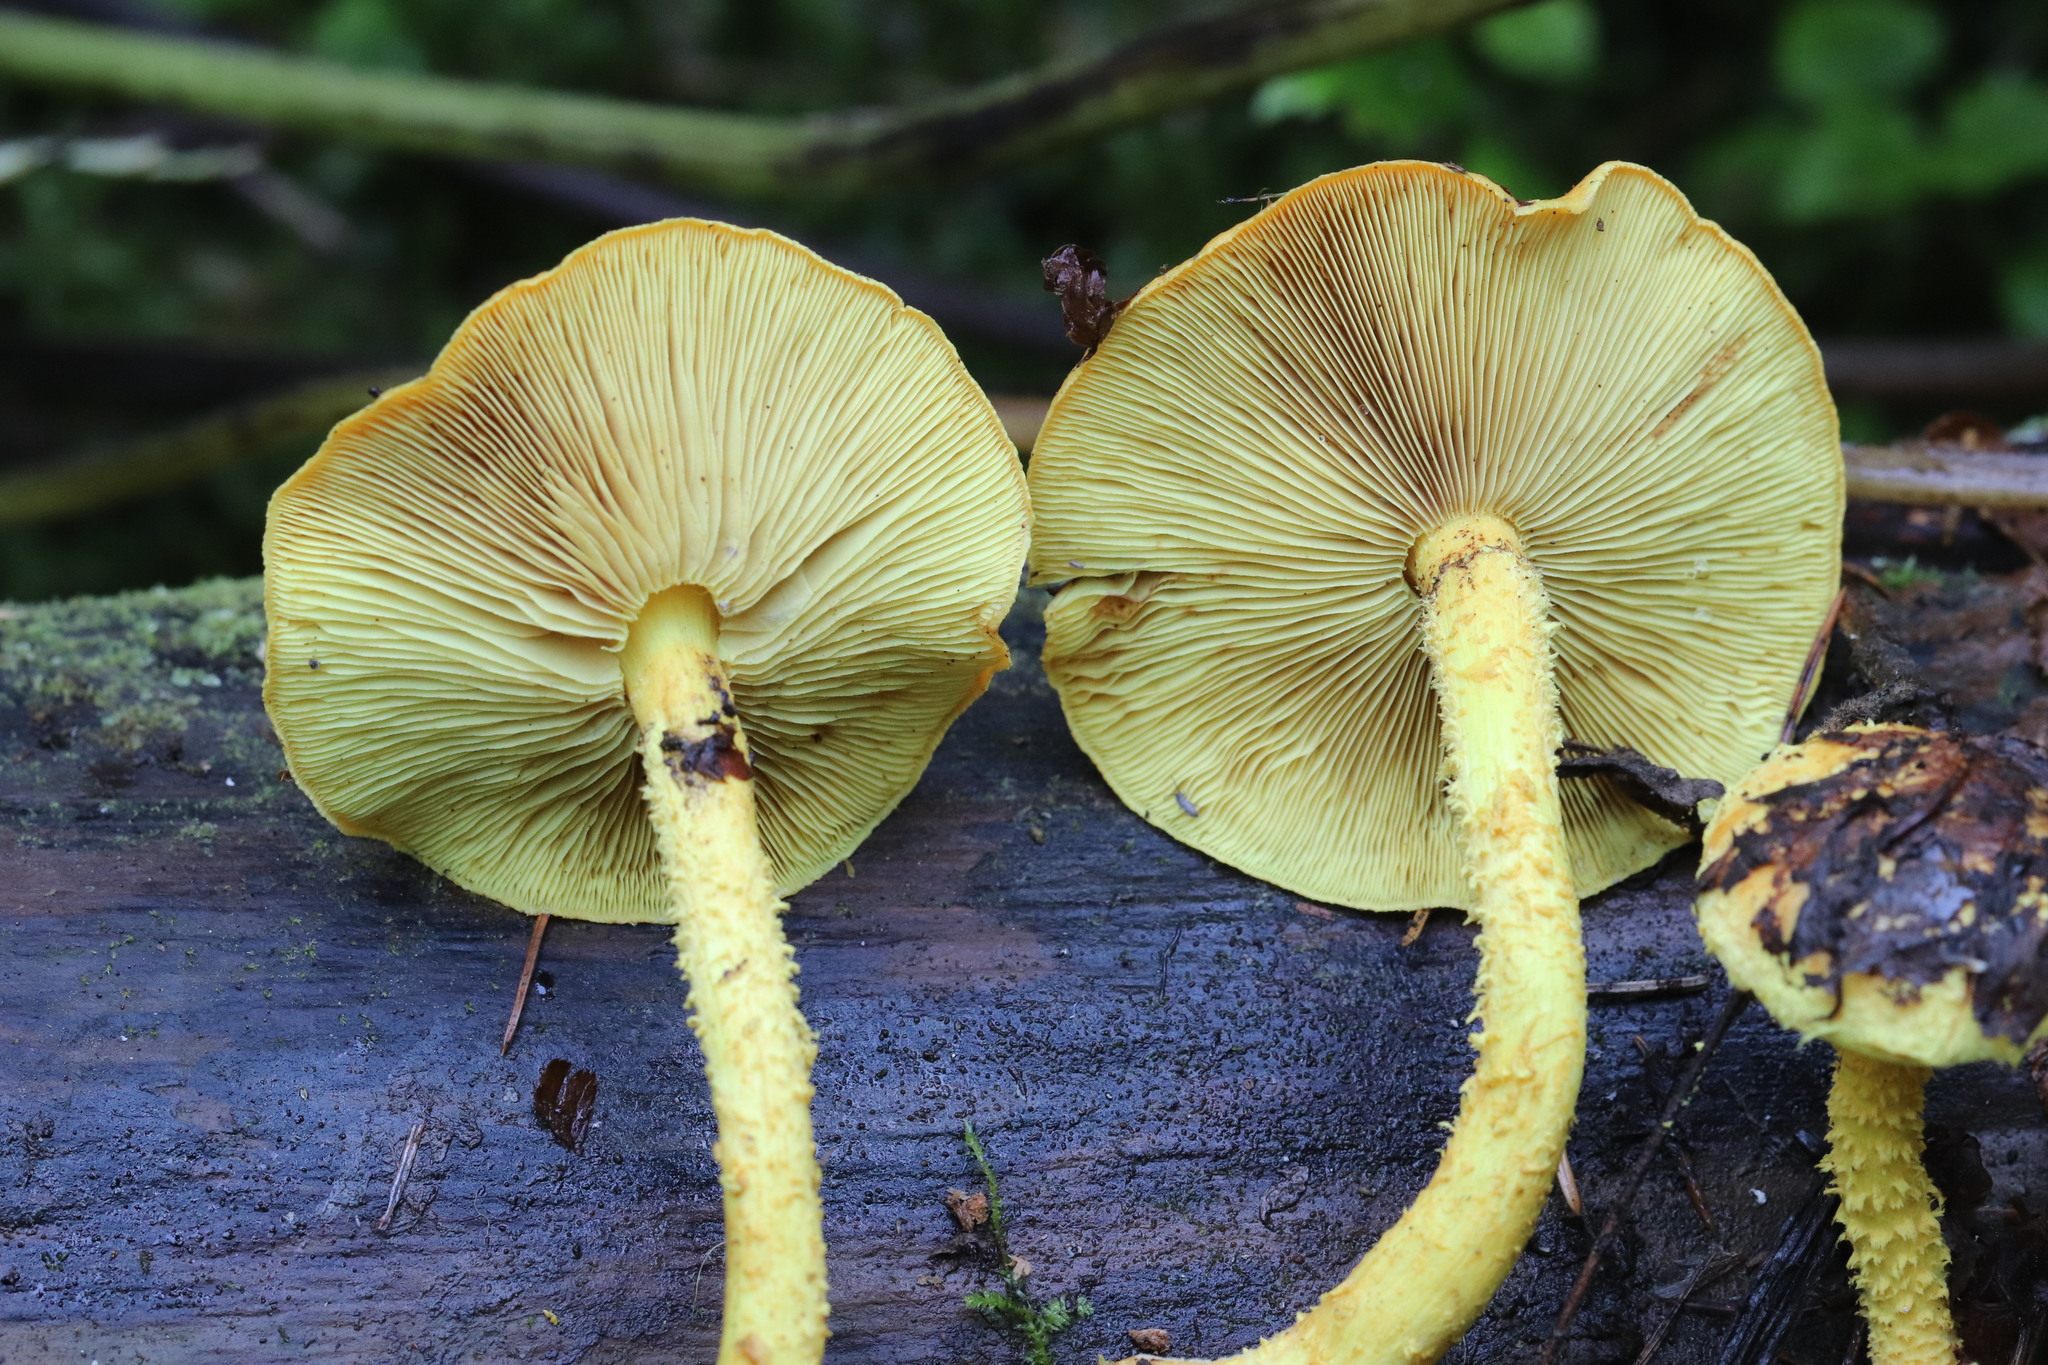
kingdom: Fungi
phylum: Basidiomycota
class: Agaricomycetes
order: Agaricales
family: Strophariaceae
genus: Pholiota
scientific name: Pholiota flammans
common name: Flaming scalycap
